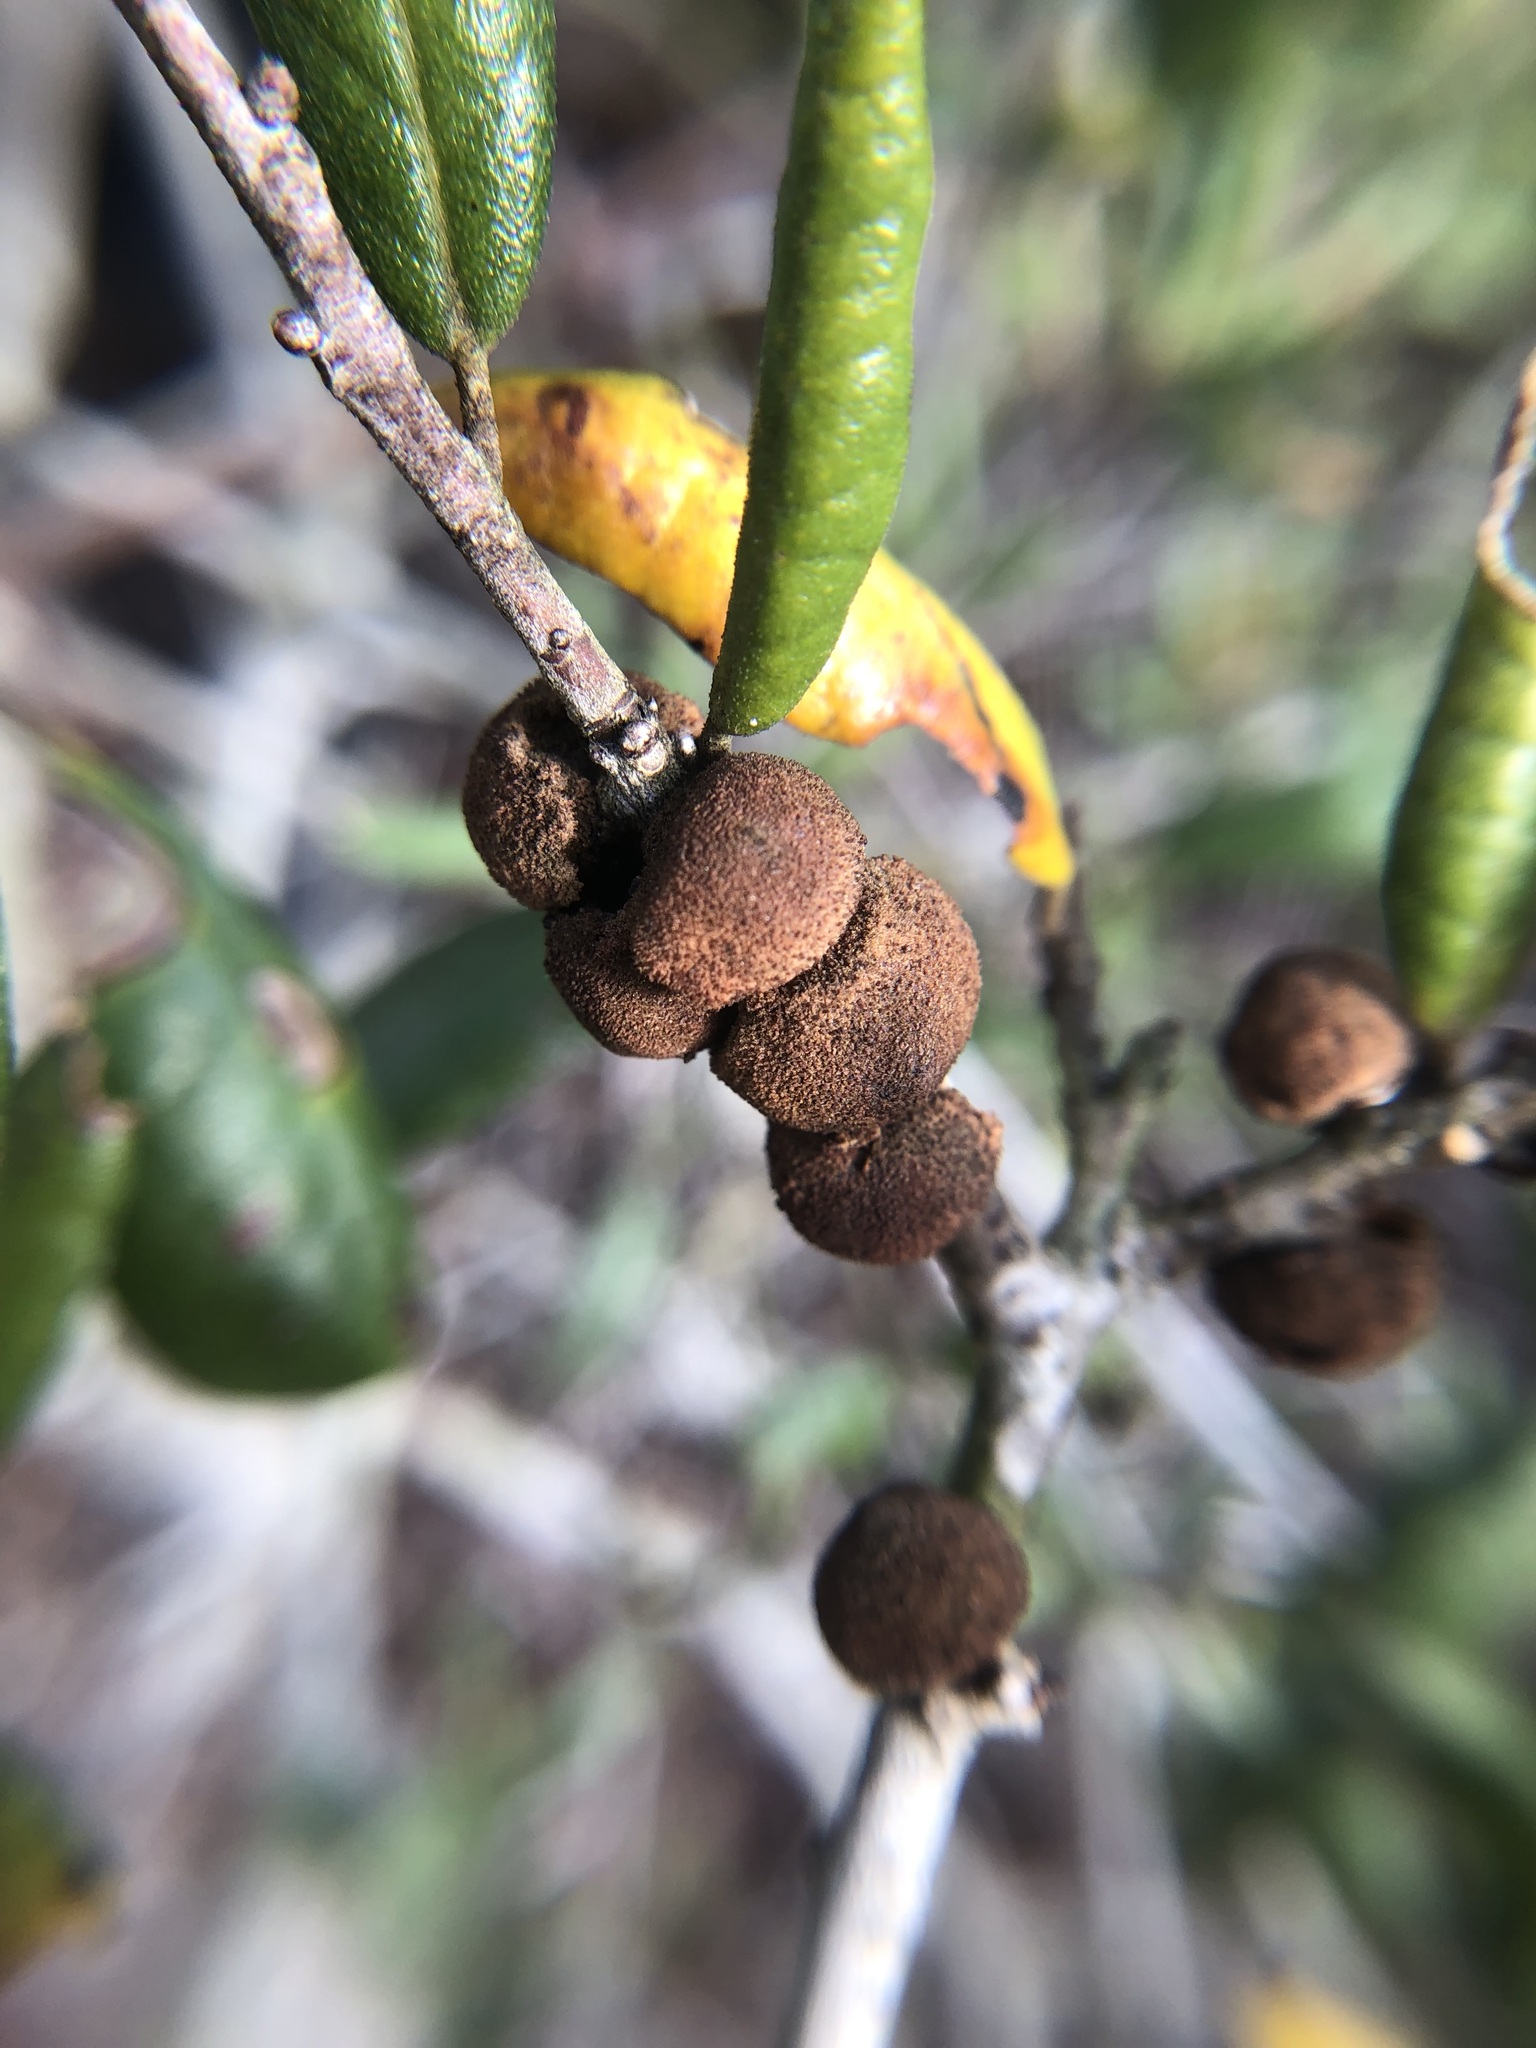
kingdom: Animalia
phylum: Arthropoda
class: Insecta
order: Hymenoptera
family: Cynipidae
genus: Disholcaspis
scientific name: Disholcaspis
